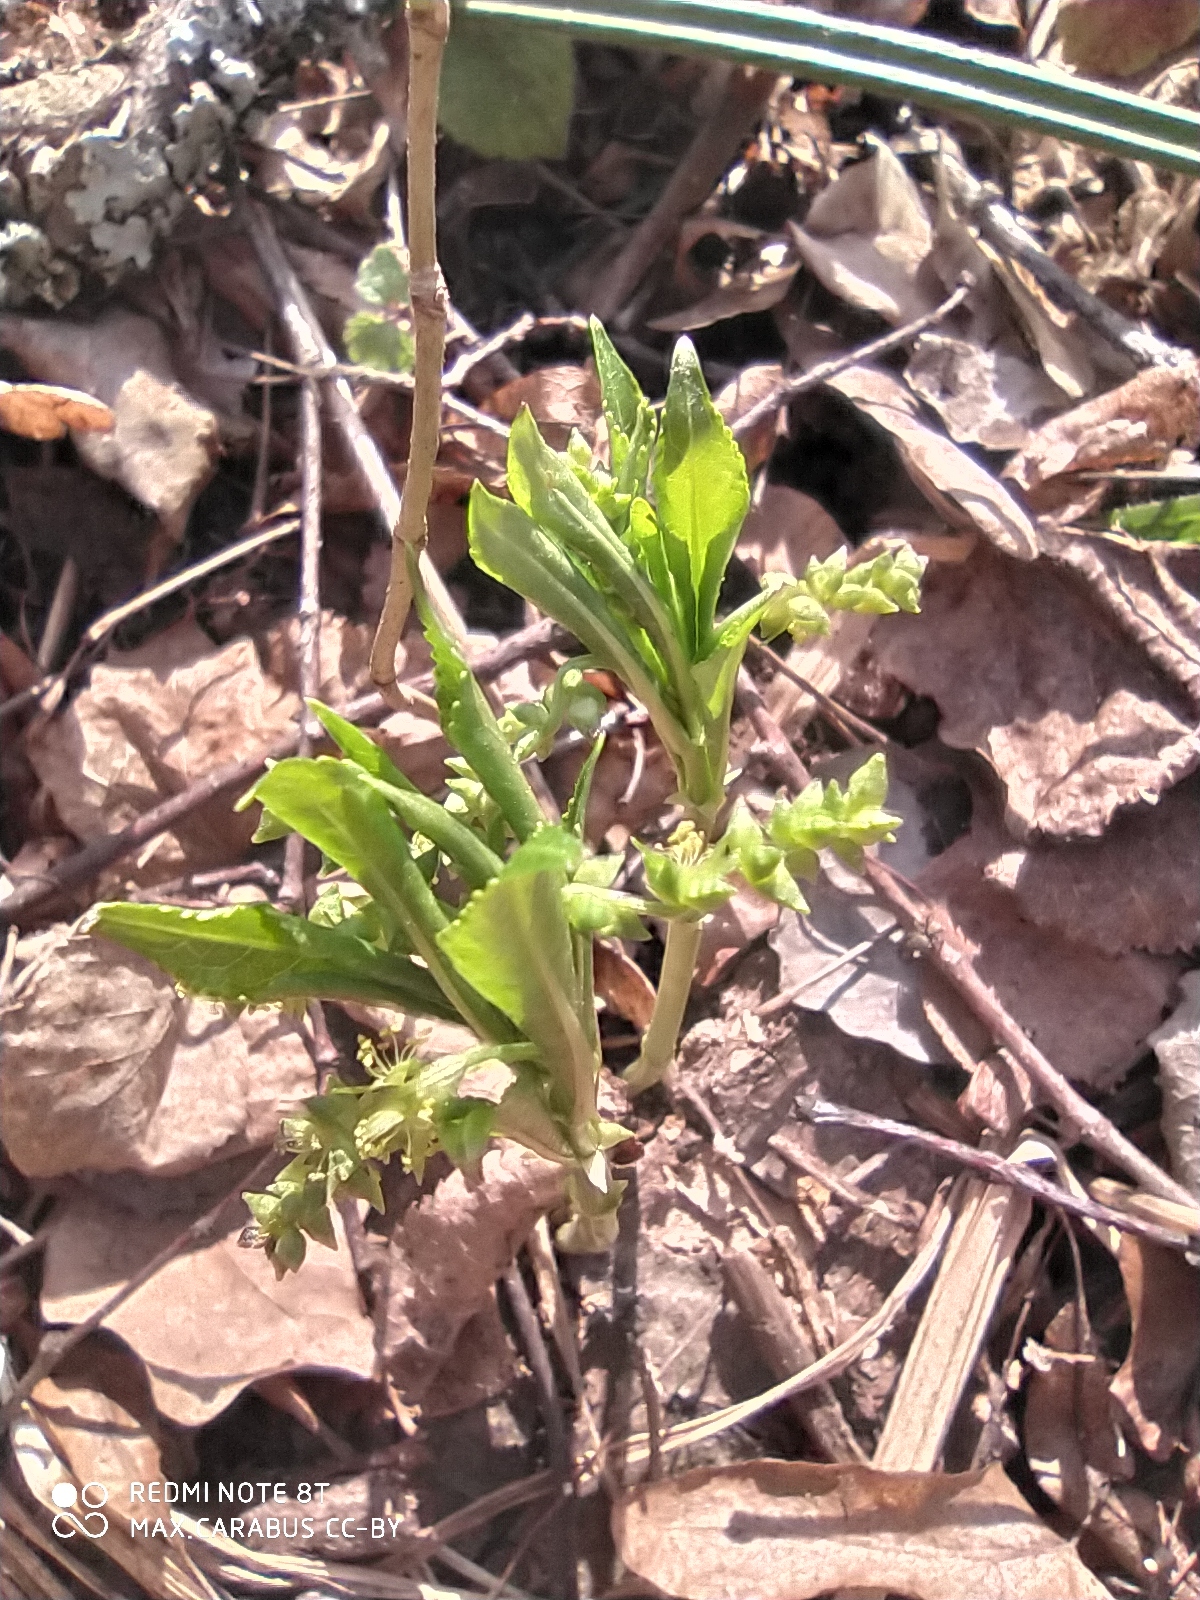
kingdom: Plantae
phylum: Tracheophyta
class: Magnoliopsida
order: Malpighiales
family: Euphorbiaceae
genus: Mercurialis
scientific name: Mercurialis perennis
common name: Dog mercury
